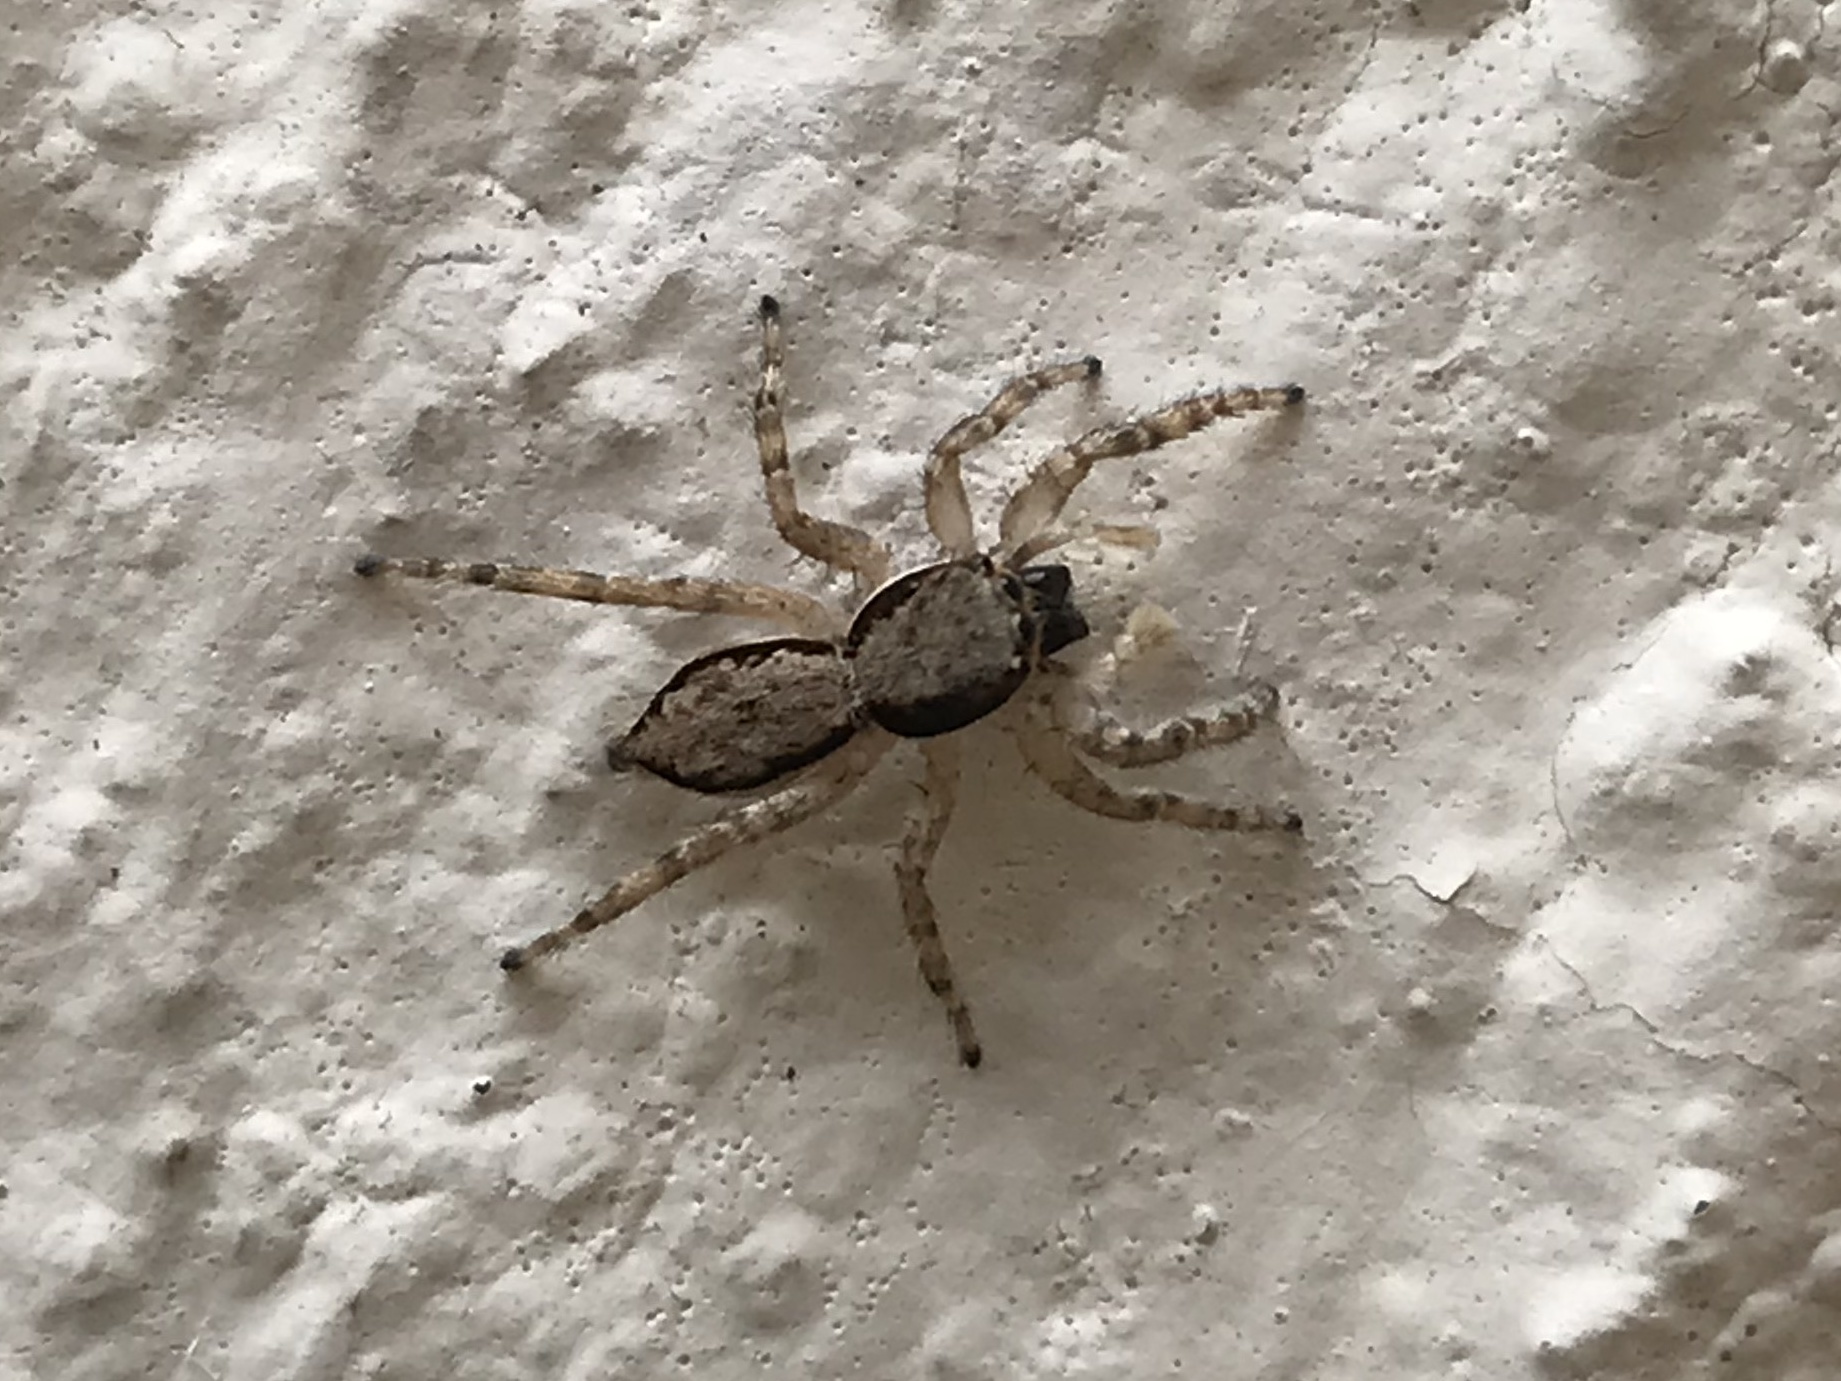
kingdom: Animalia
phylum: Arthropoda
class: Arachnida
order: Araneae
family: Salticidae
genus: Menemerus
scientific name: Menemerus bivittatus
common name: Gray wall jumper
